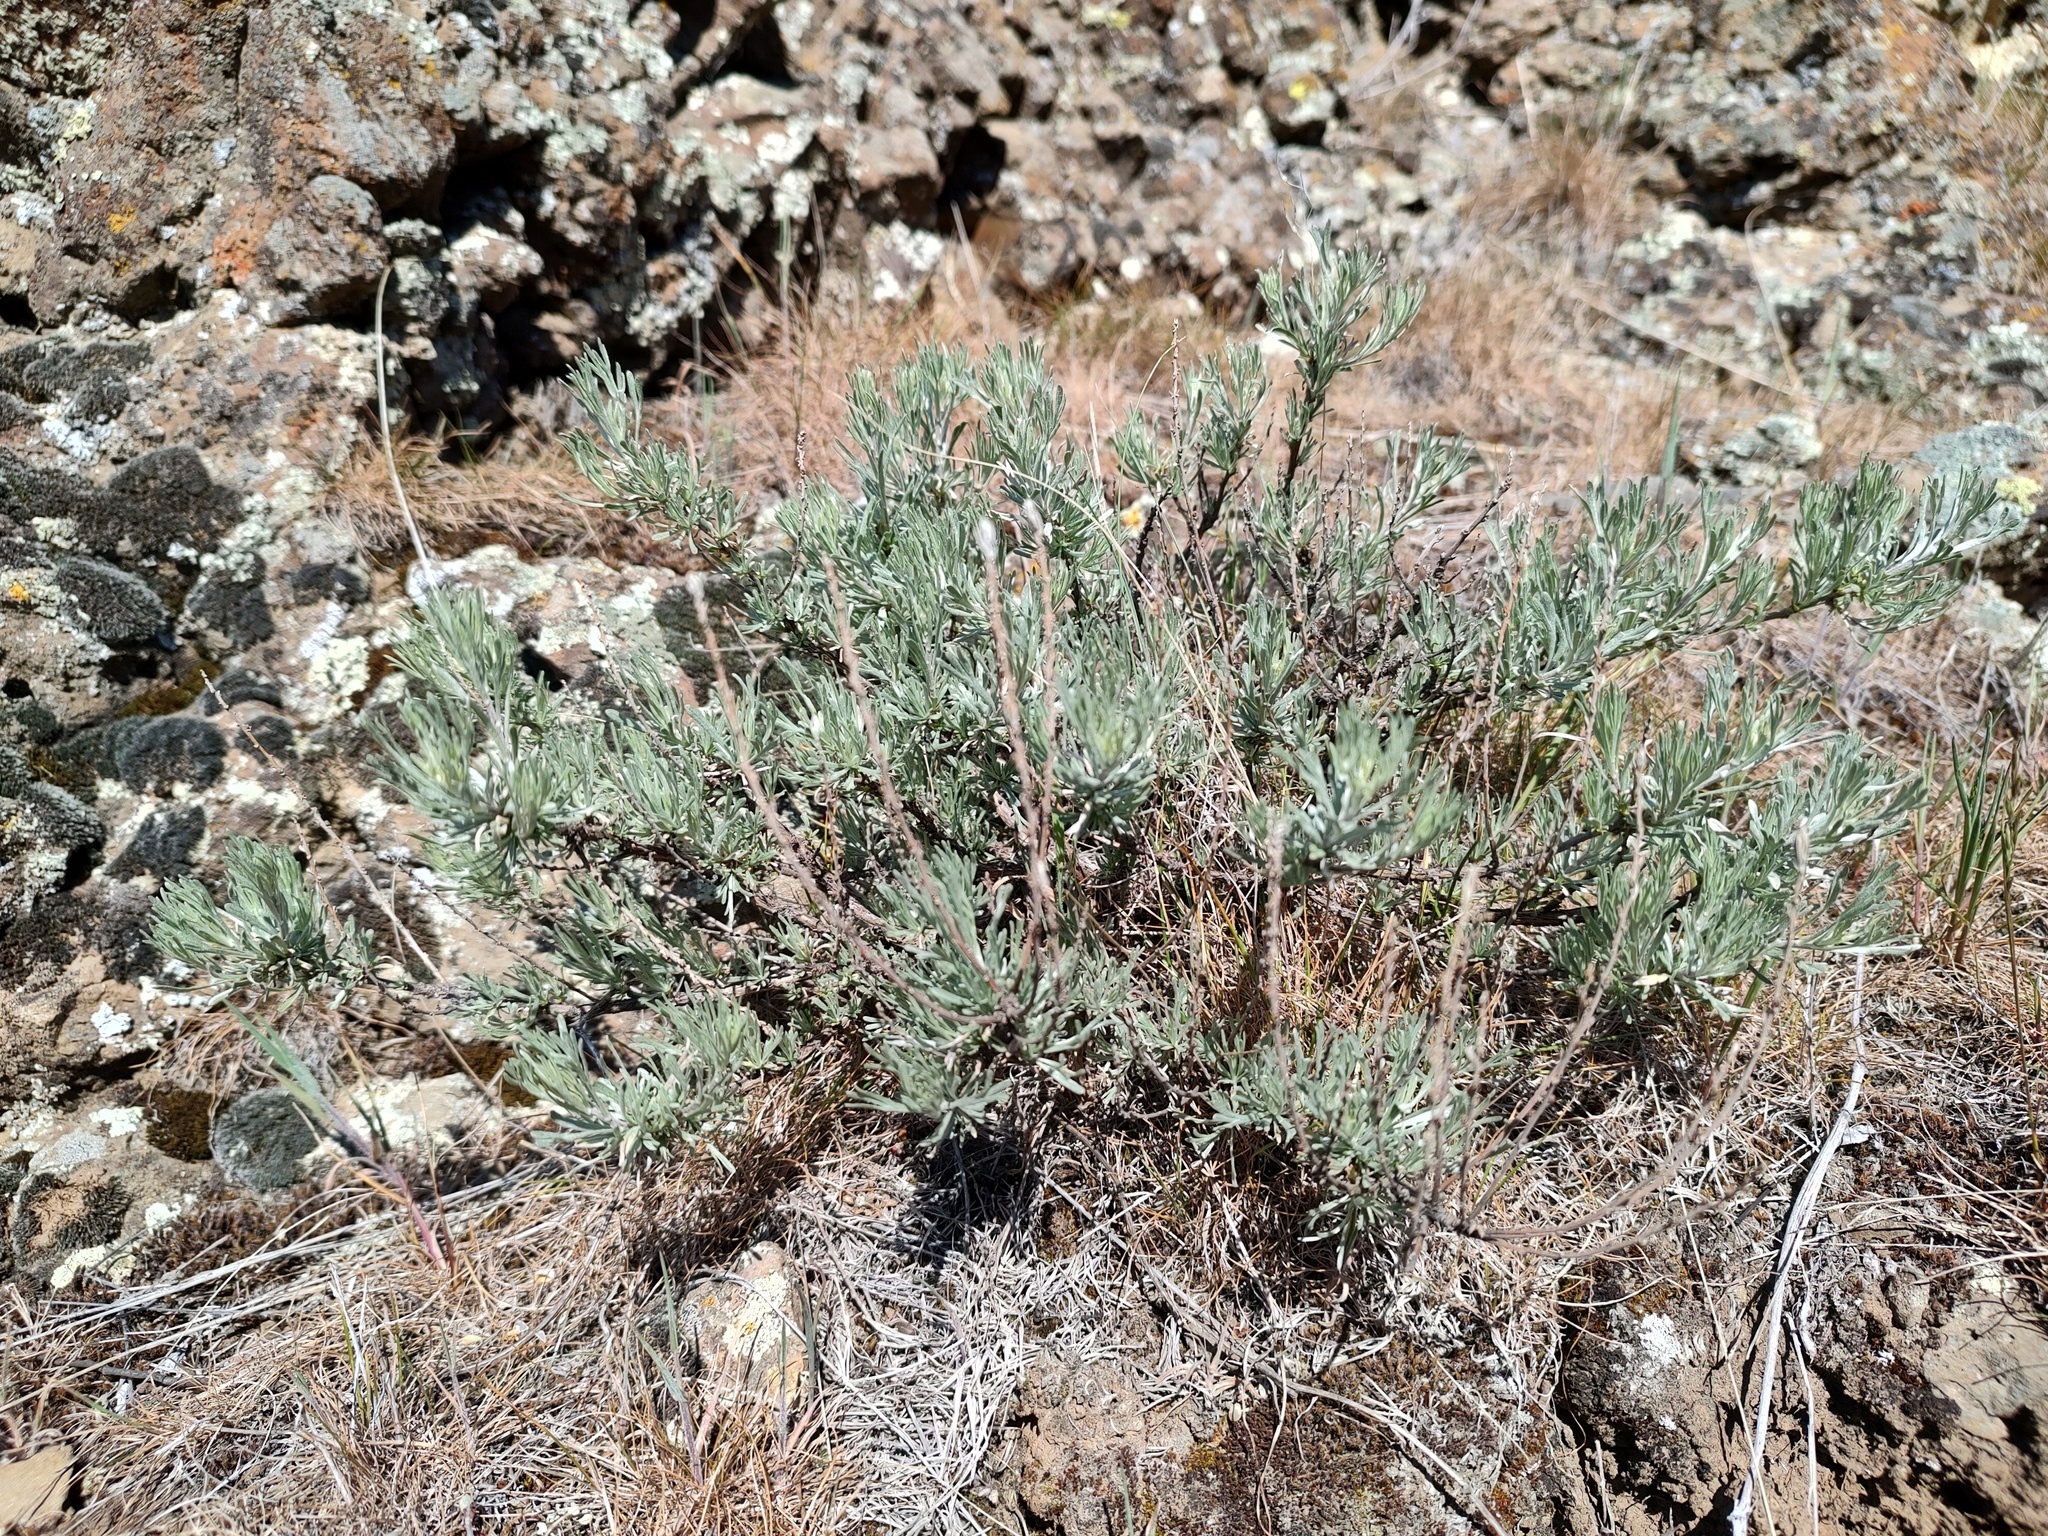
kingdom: Plantae
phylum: Tracheophyta
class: Magnoliopsida
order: Asterales
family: Asteraceae
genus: Artemisia
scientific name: Artemisia rigida
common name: Scabland sagebrush
